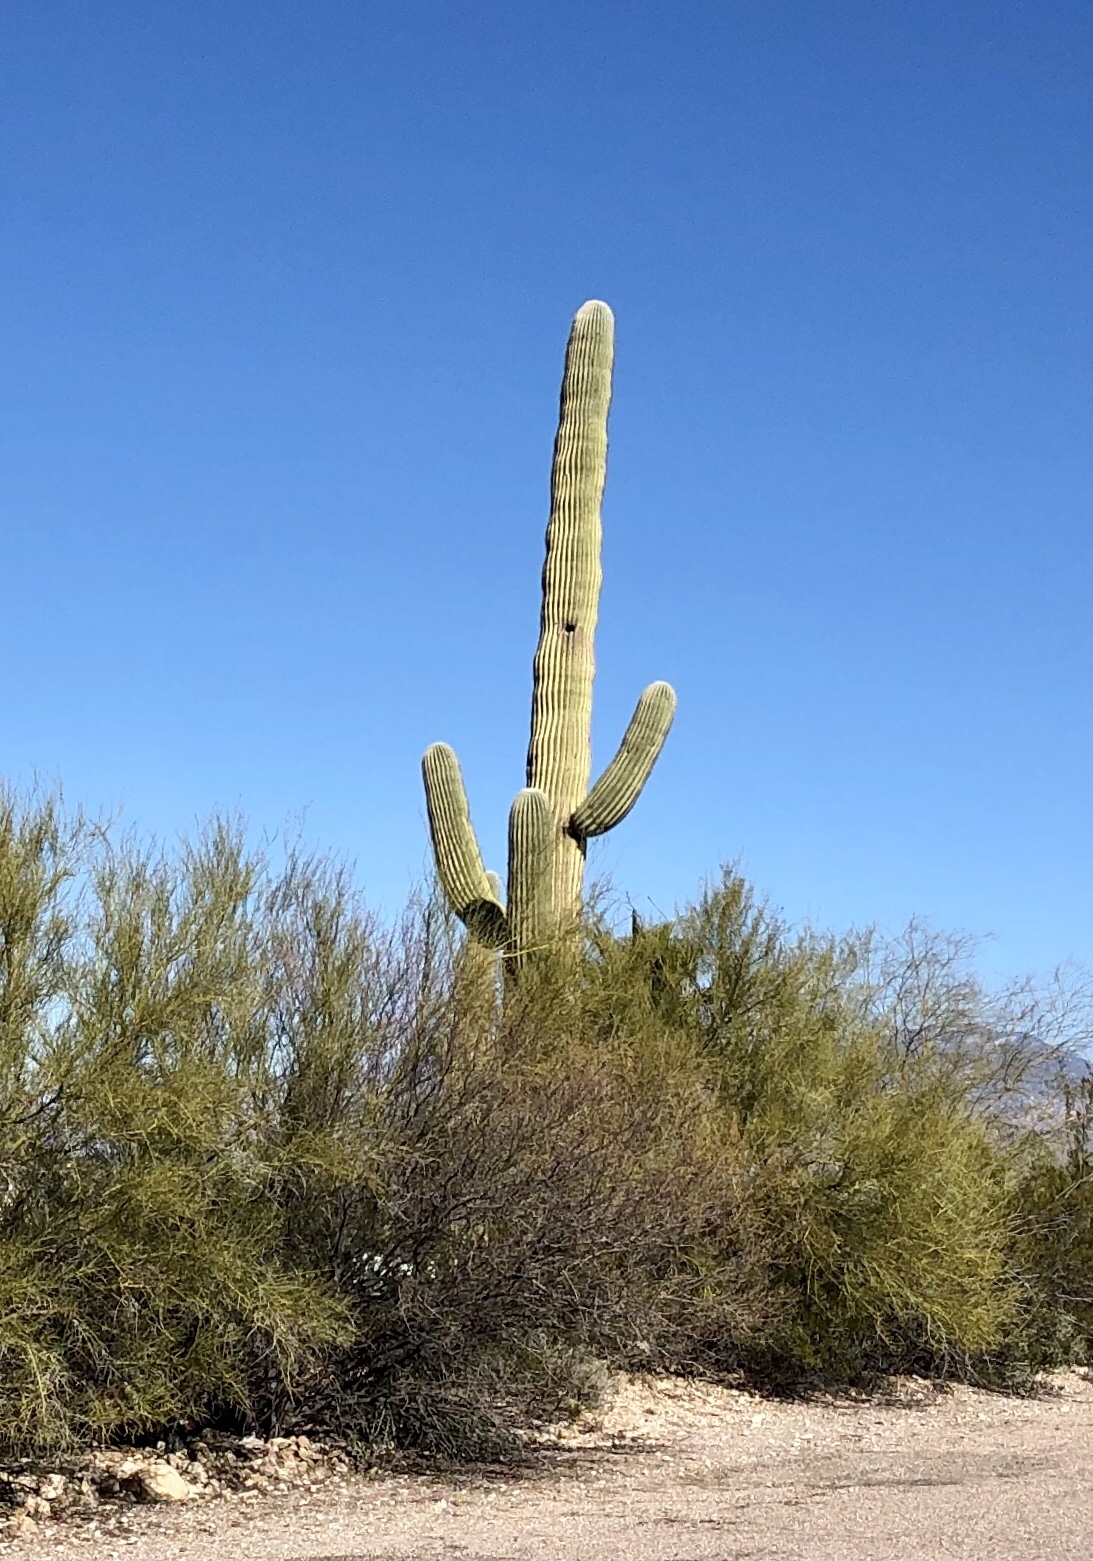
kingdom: Plantae
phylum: Tracheophyta
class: Magnoliopsida
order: Caryophyllales
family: Cactaceae
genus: Carnegiea
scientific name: Carnegiea gigantea
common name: Saguaro
